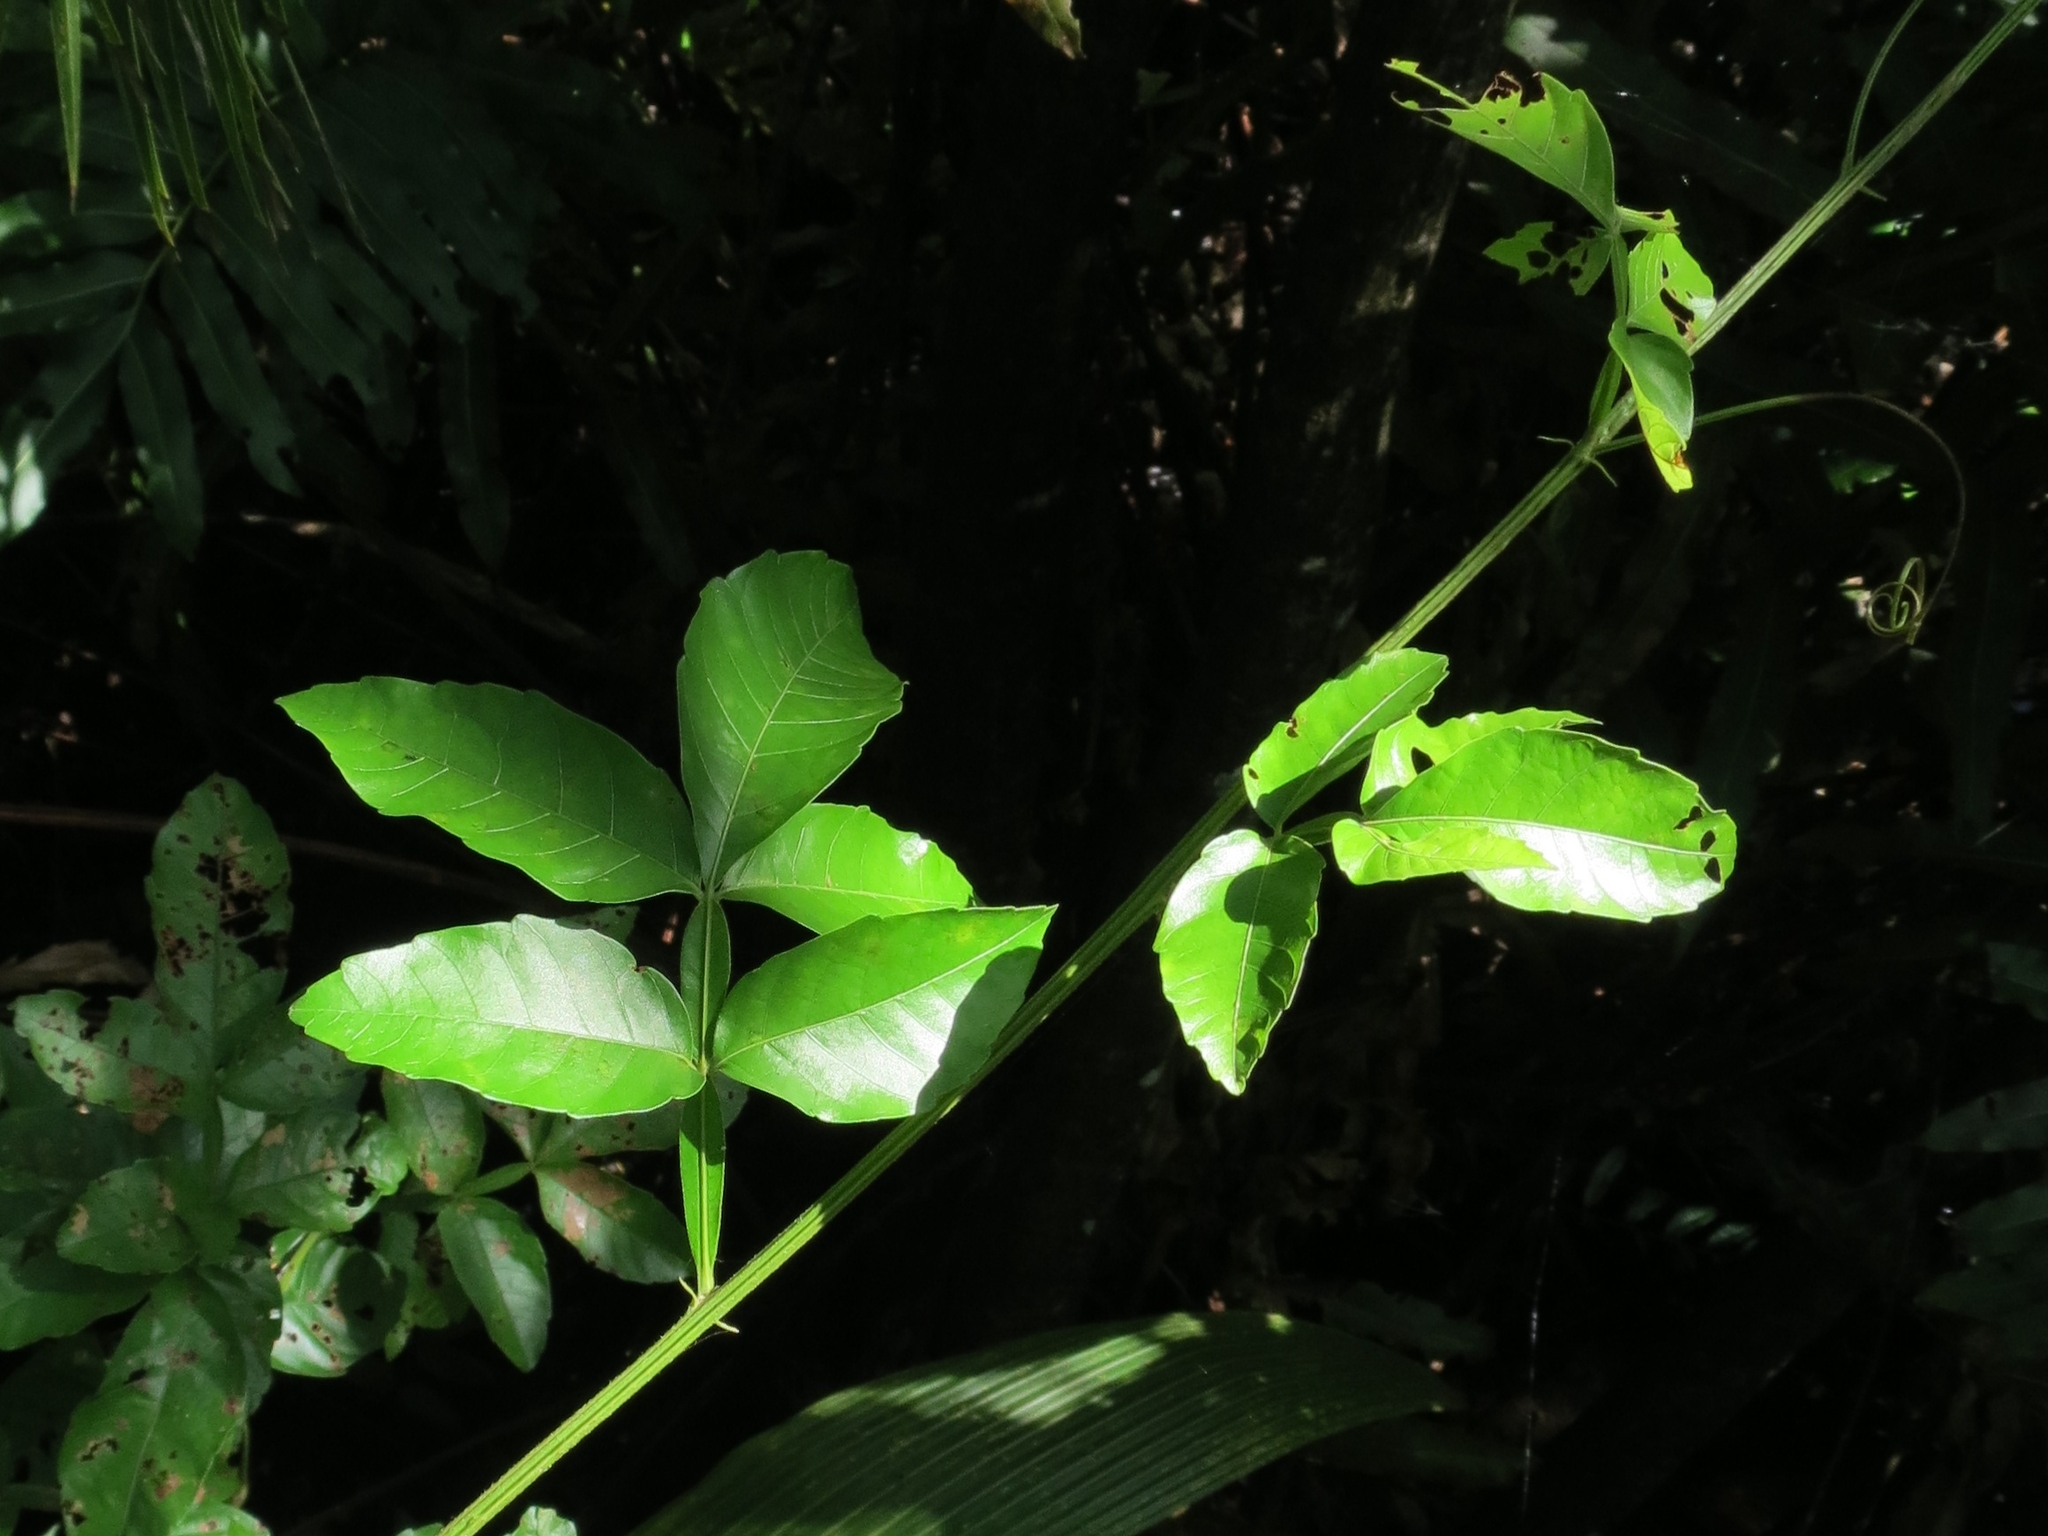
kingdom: Plantae
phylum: Tracheophyta
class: Magnoliopsida
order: Sapindales
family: Sapindaceae
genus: Paullinia
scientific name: Paullinia pinnata
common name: Barbasco
